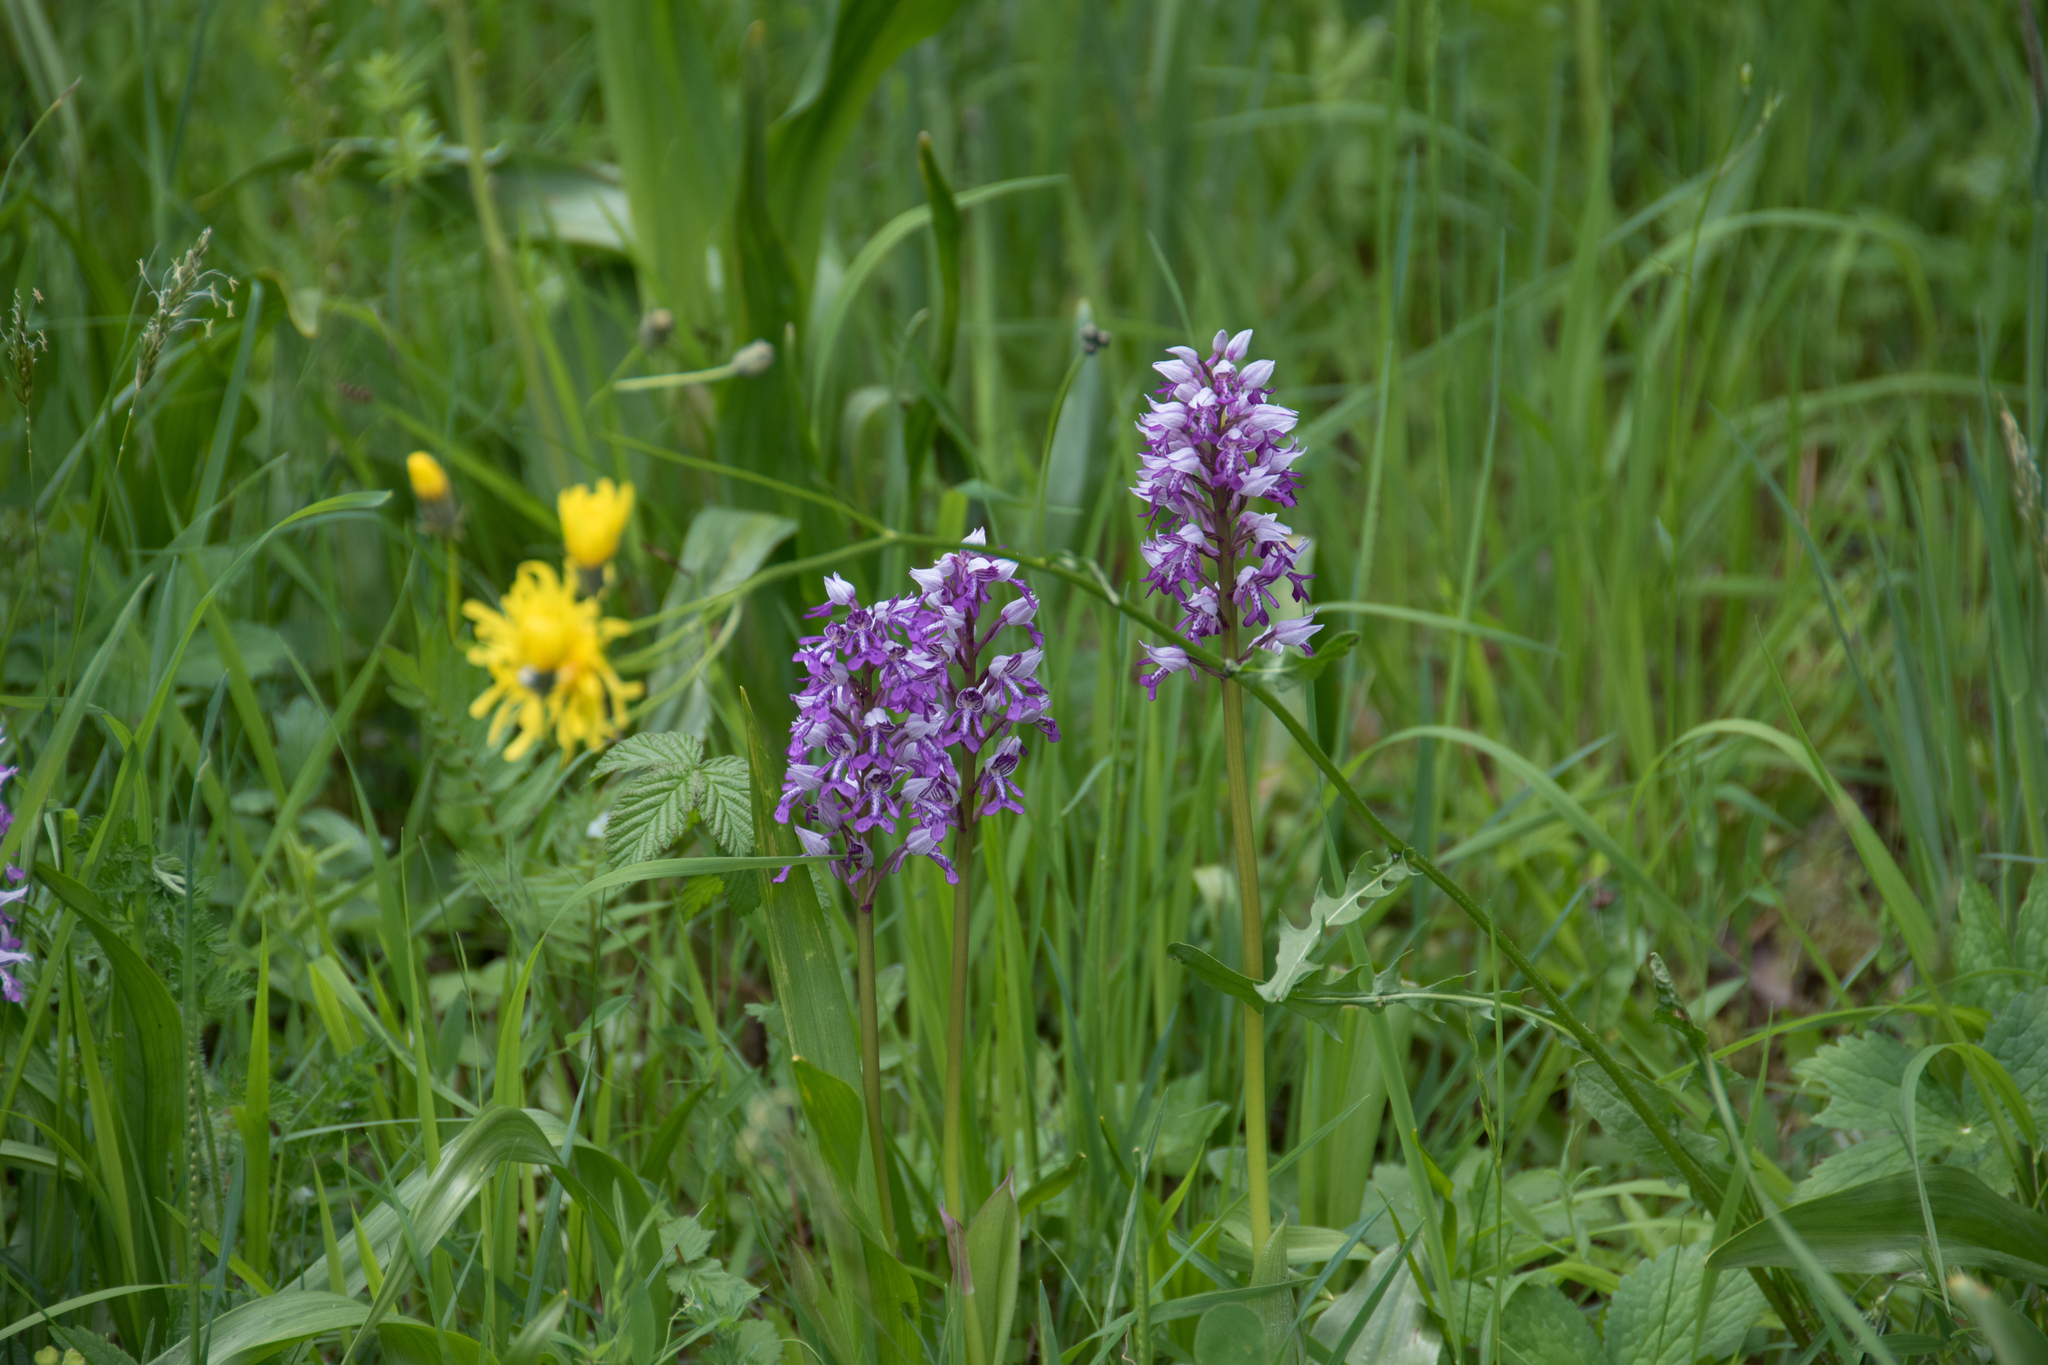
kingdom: Plantae
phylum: Tracheophyta
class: Liliopsida
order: Asparagales
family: Orchidaceae
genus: Orchis
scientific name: Orchis militaris
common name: Military orchid
